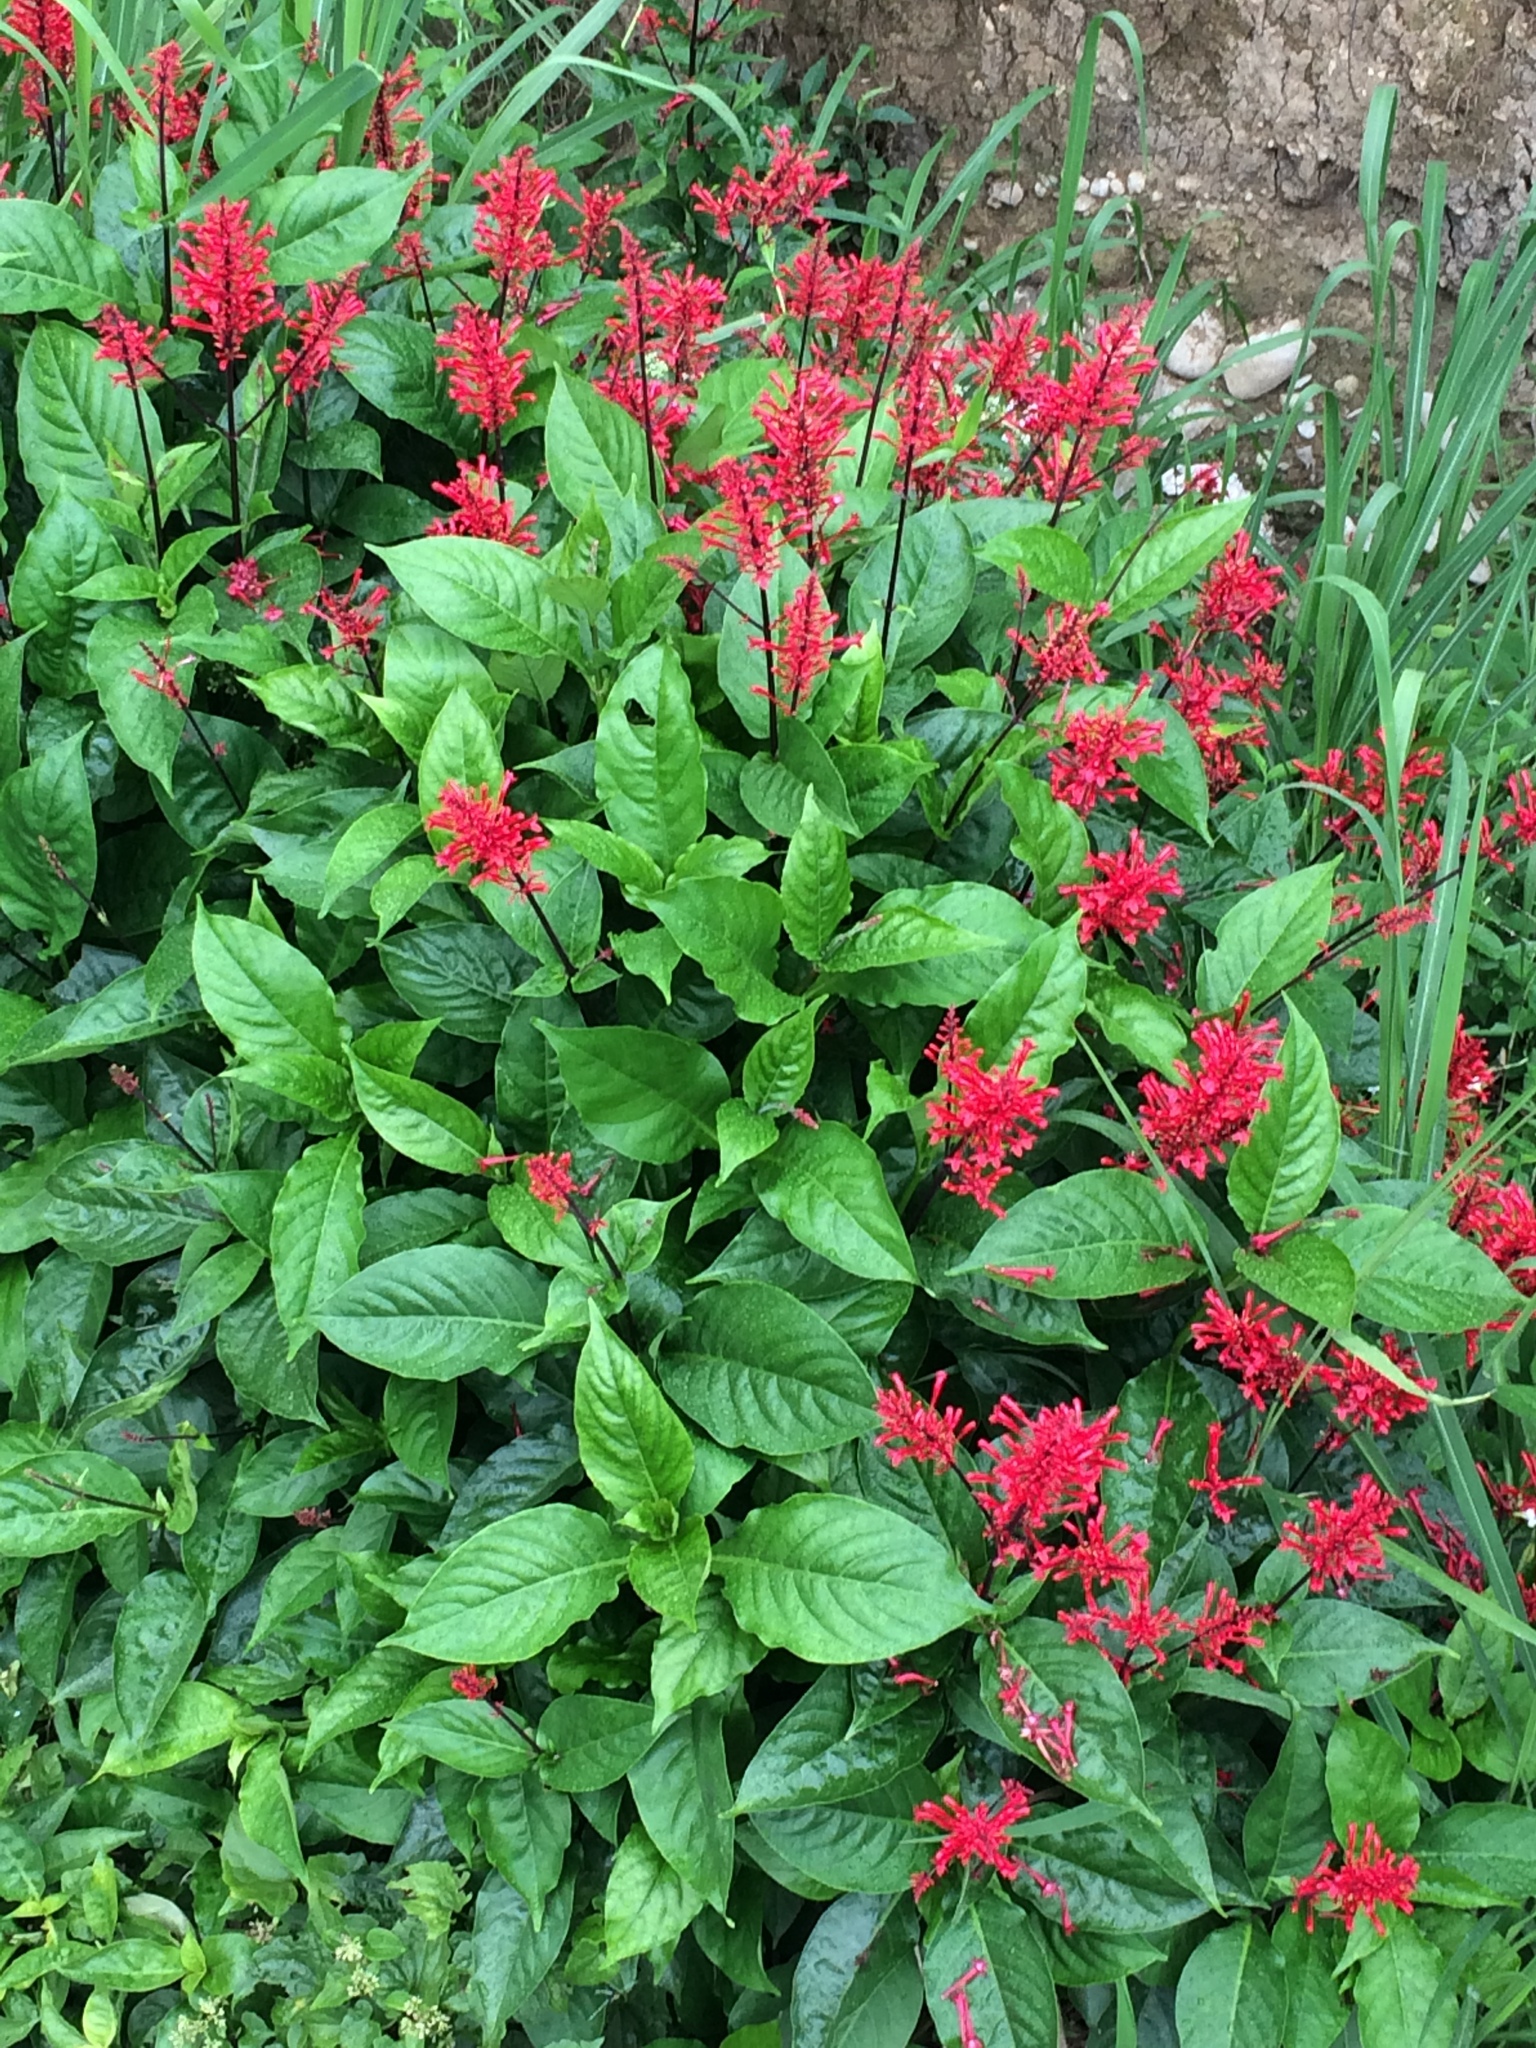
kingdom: Plantae
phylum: Tracheophyta
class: Magnoliopsida
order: Lamiales
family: Acanthaceae
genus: Odontonema
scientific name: Odontonema tubaeforme
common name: Firespike
